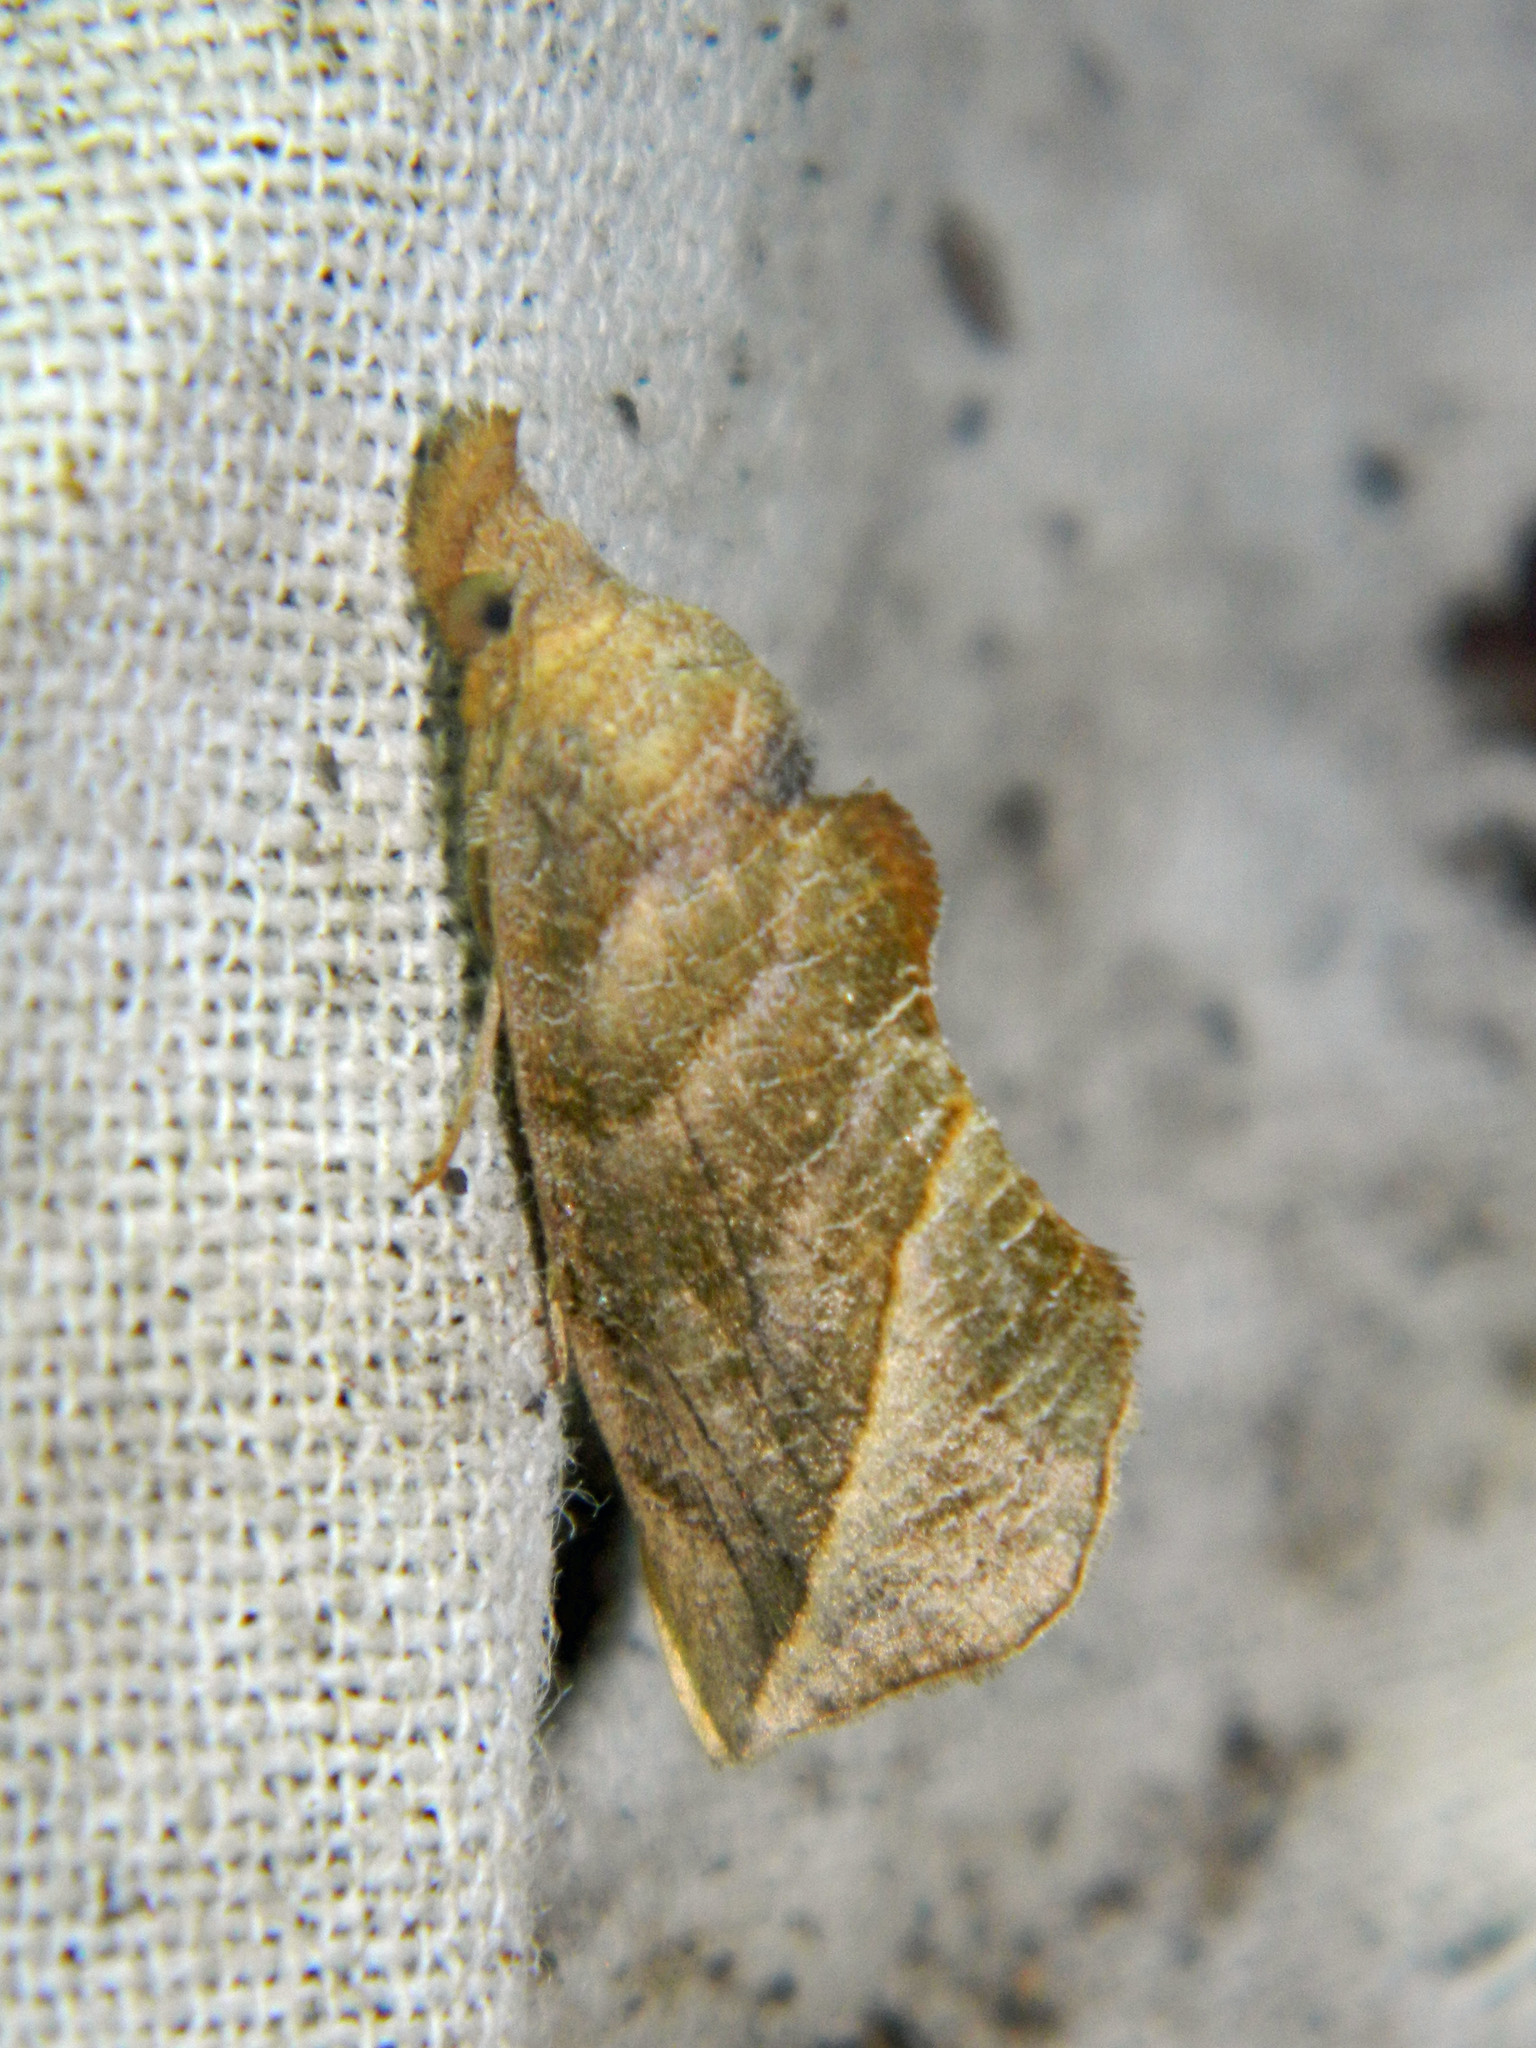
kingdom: Animalia
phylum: Arthropoda
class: Insecta
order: Lepidoptera
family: Erebidae
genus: Calyptra
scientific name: Calyptra canadensis
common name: Canadian owlet
